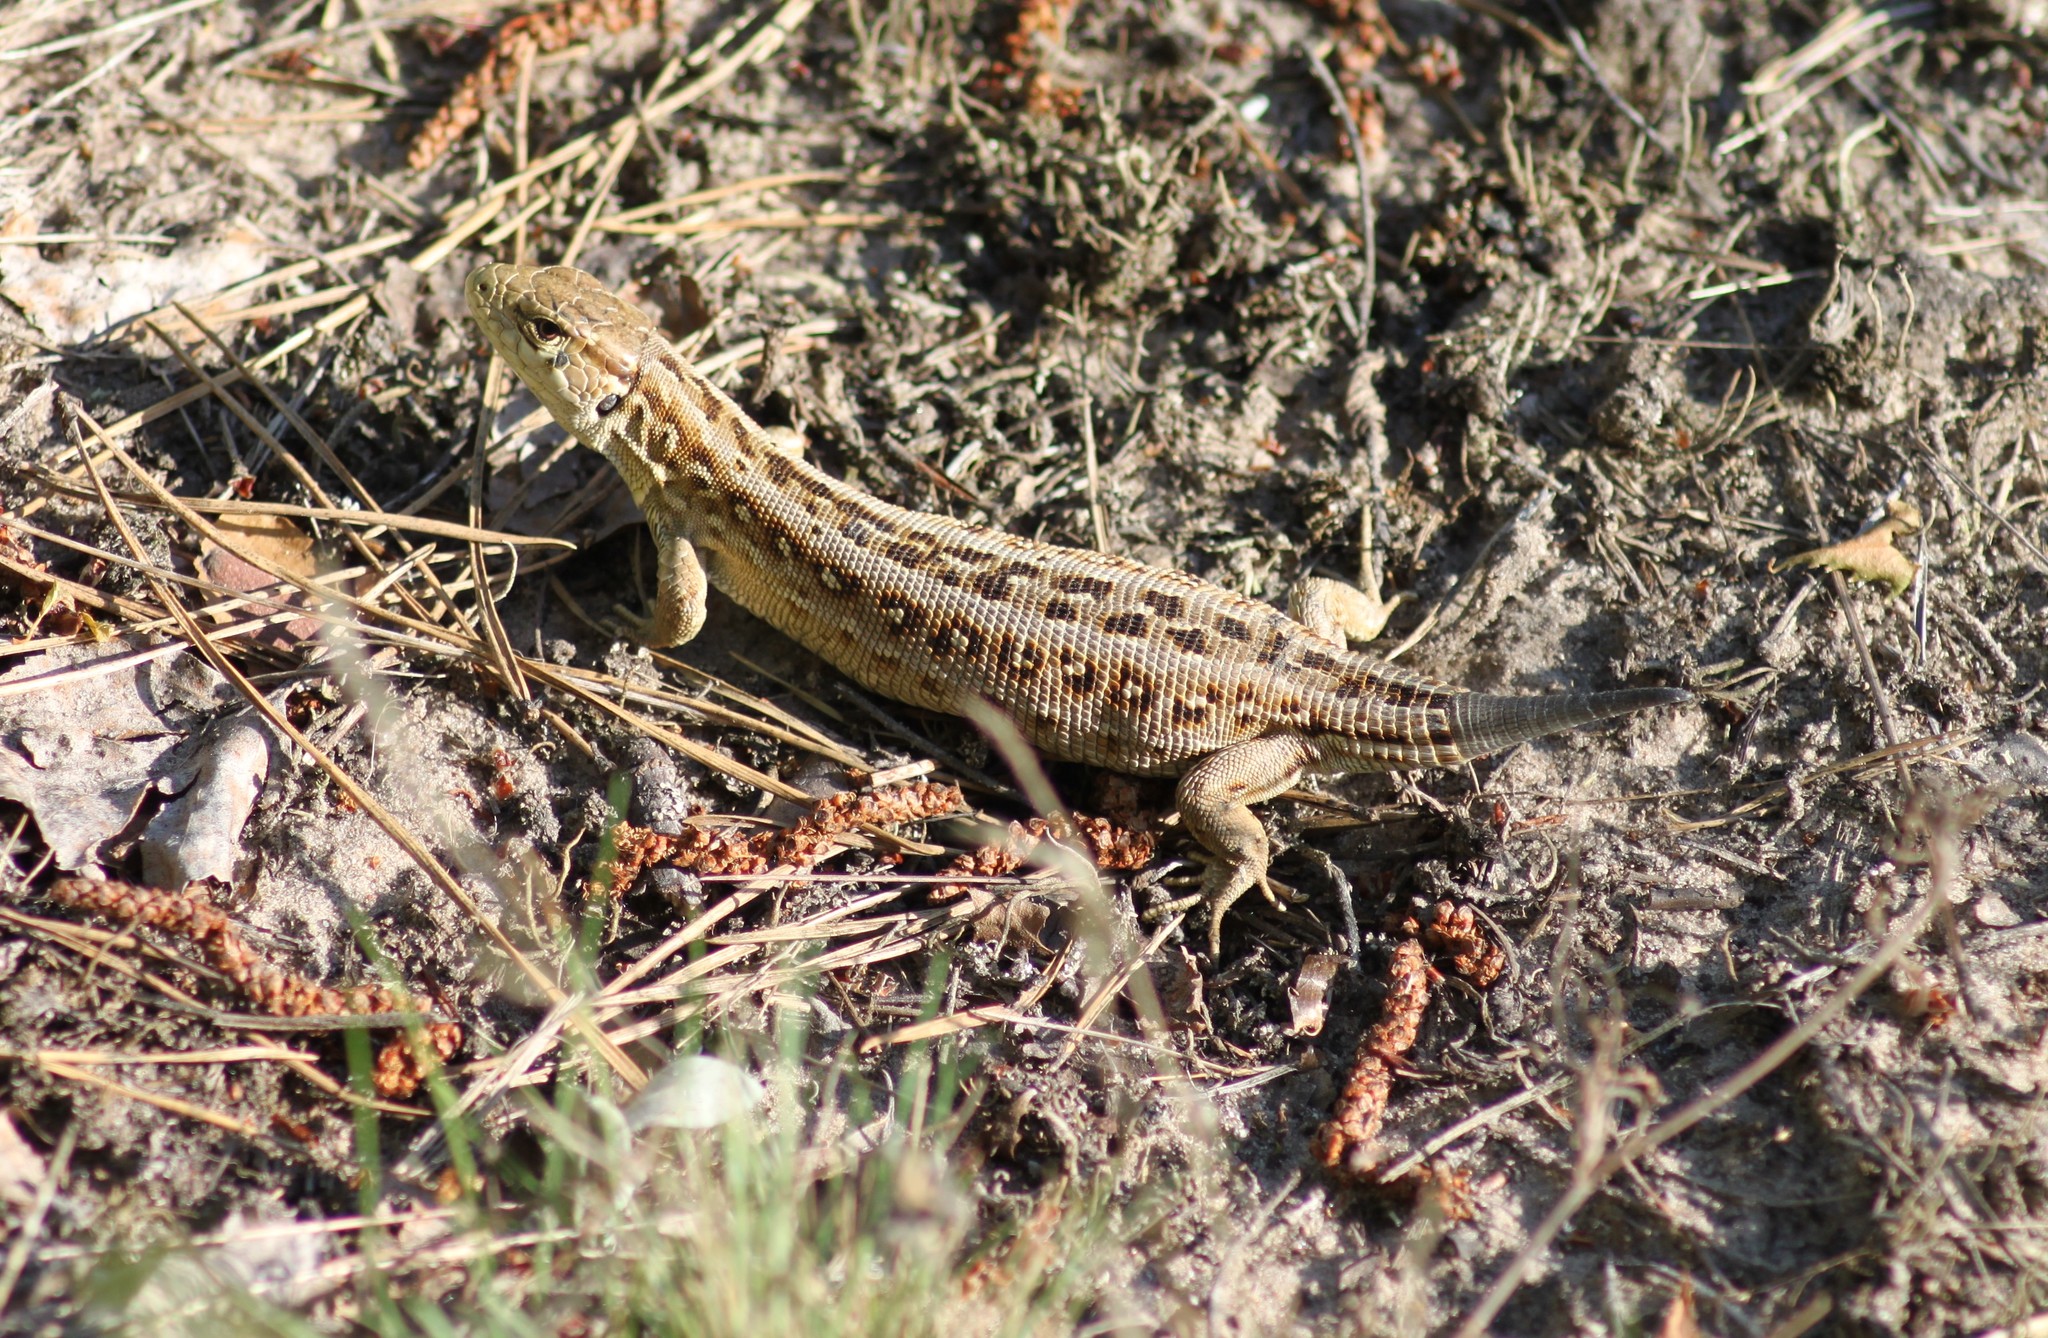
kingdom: Animalia
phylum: Chordata
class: Squamata
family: Lacertidae
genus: Lacerta
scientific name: Lacerta agilis
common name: Sand lizard
